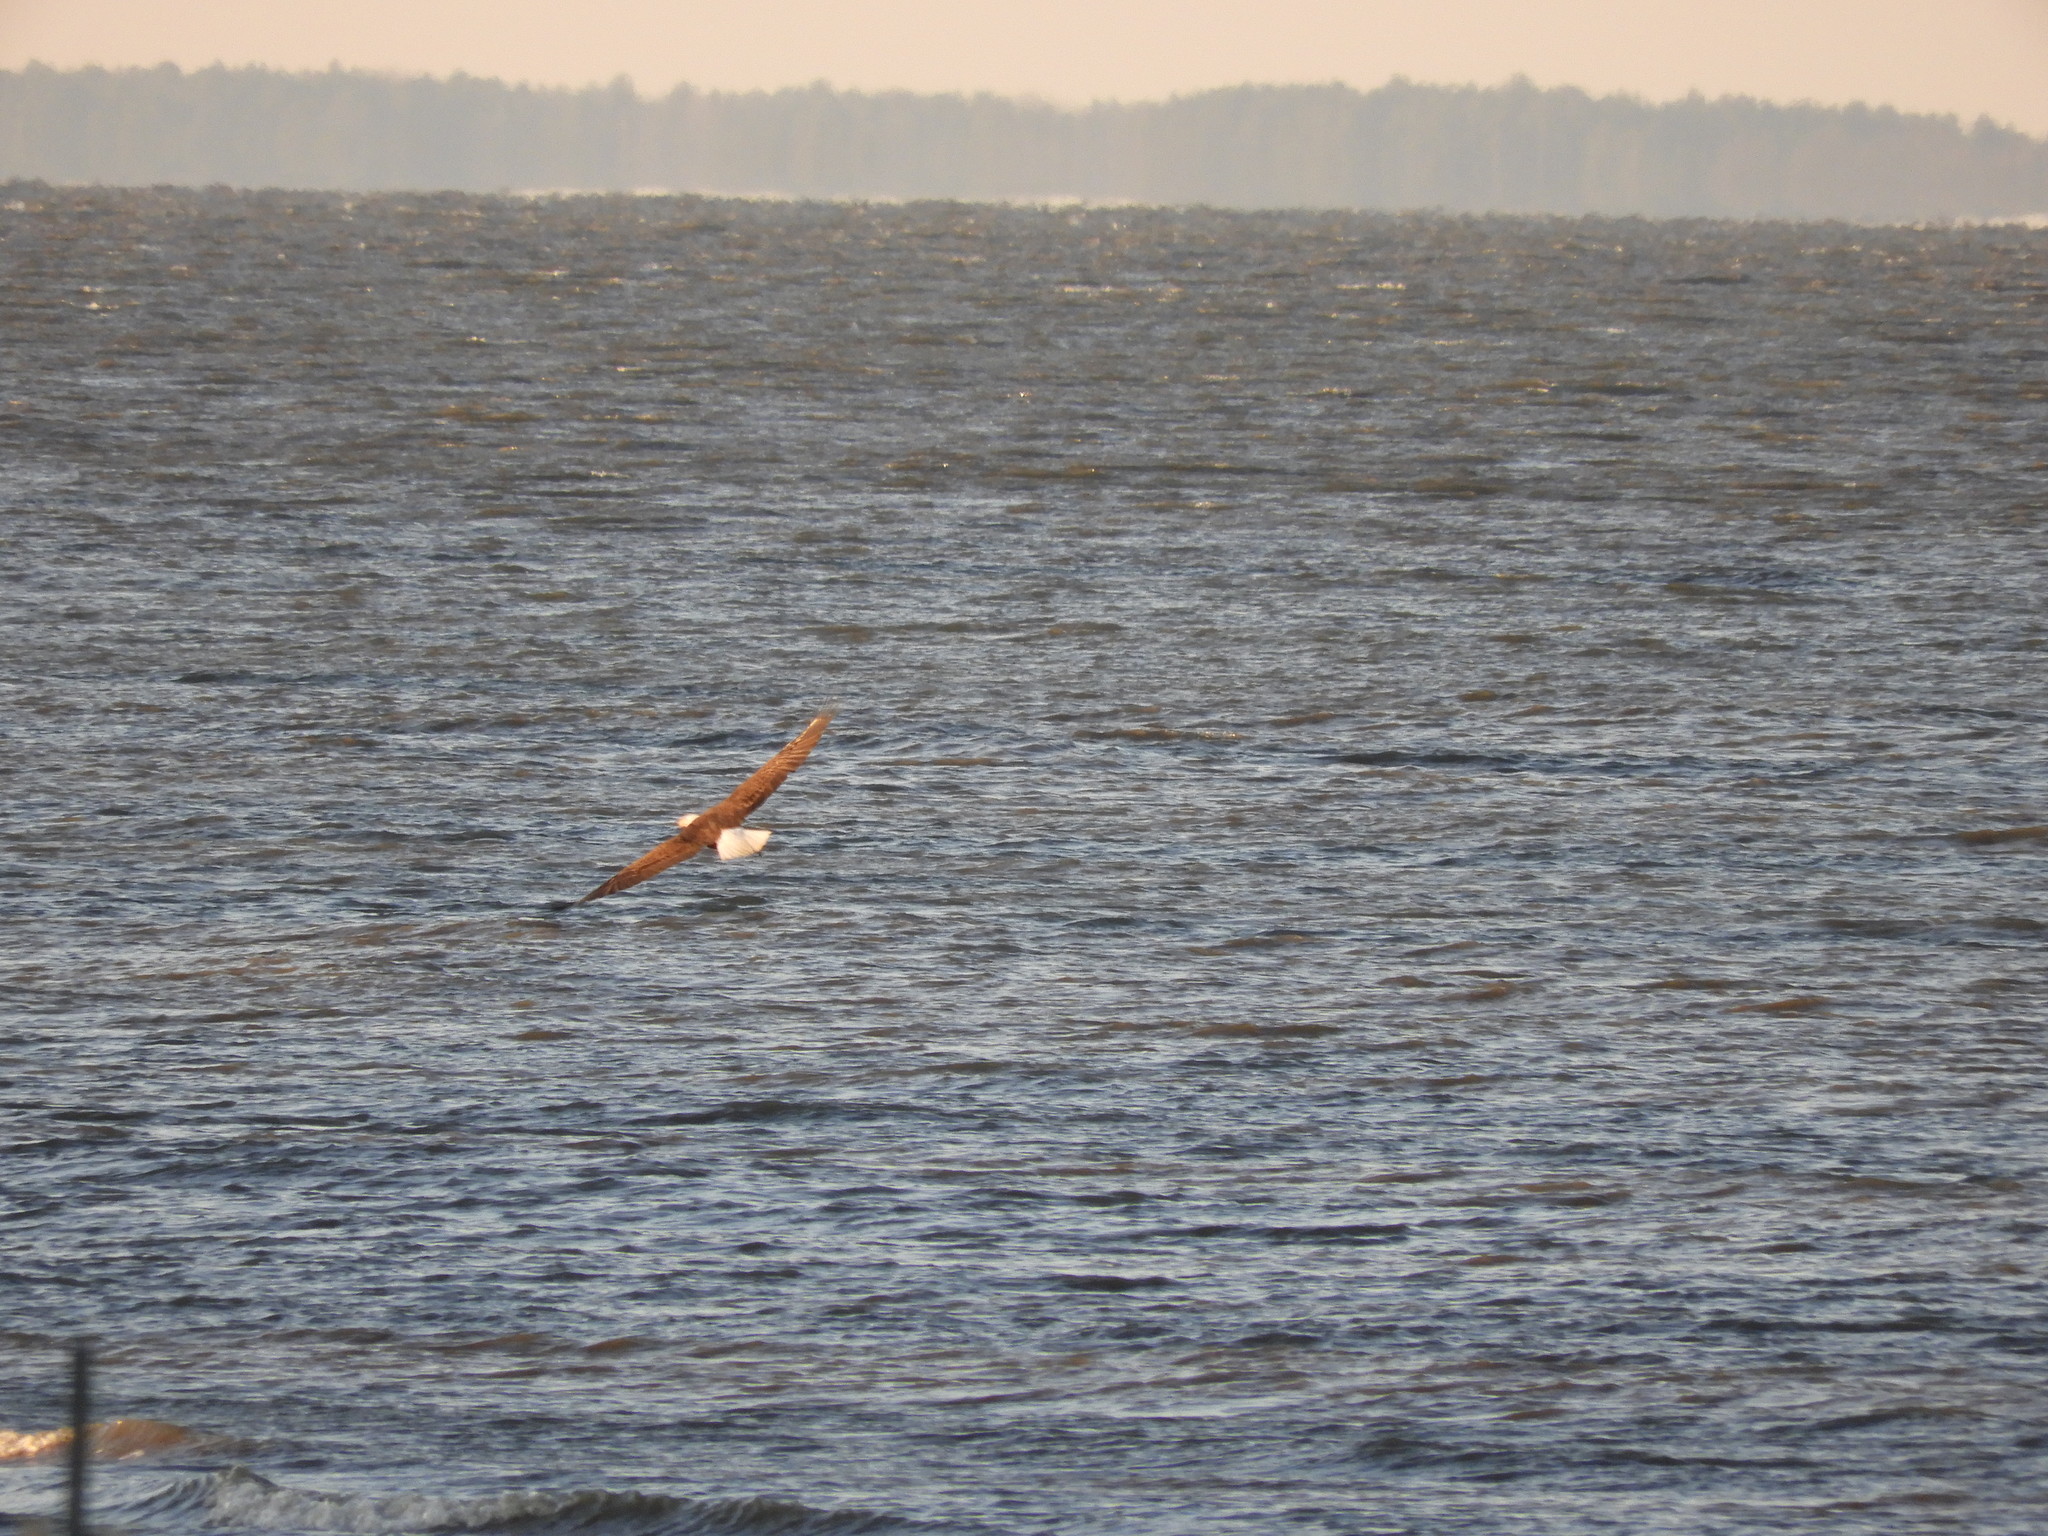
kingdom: Animalia
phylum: Chordata
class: Aves
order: Accipitriformes
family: Accipitridae
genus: Haliaeetus
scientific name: Haliaeetus leucocephalus
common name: Bald eagle
